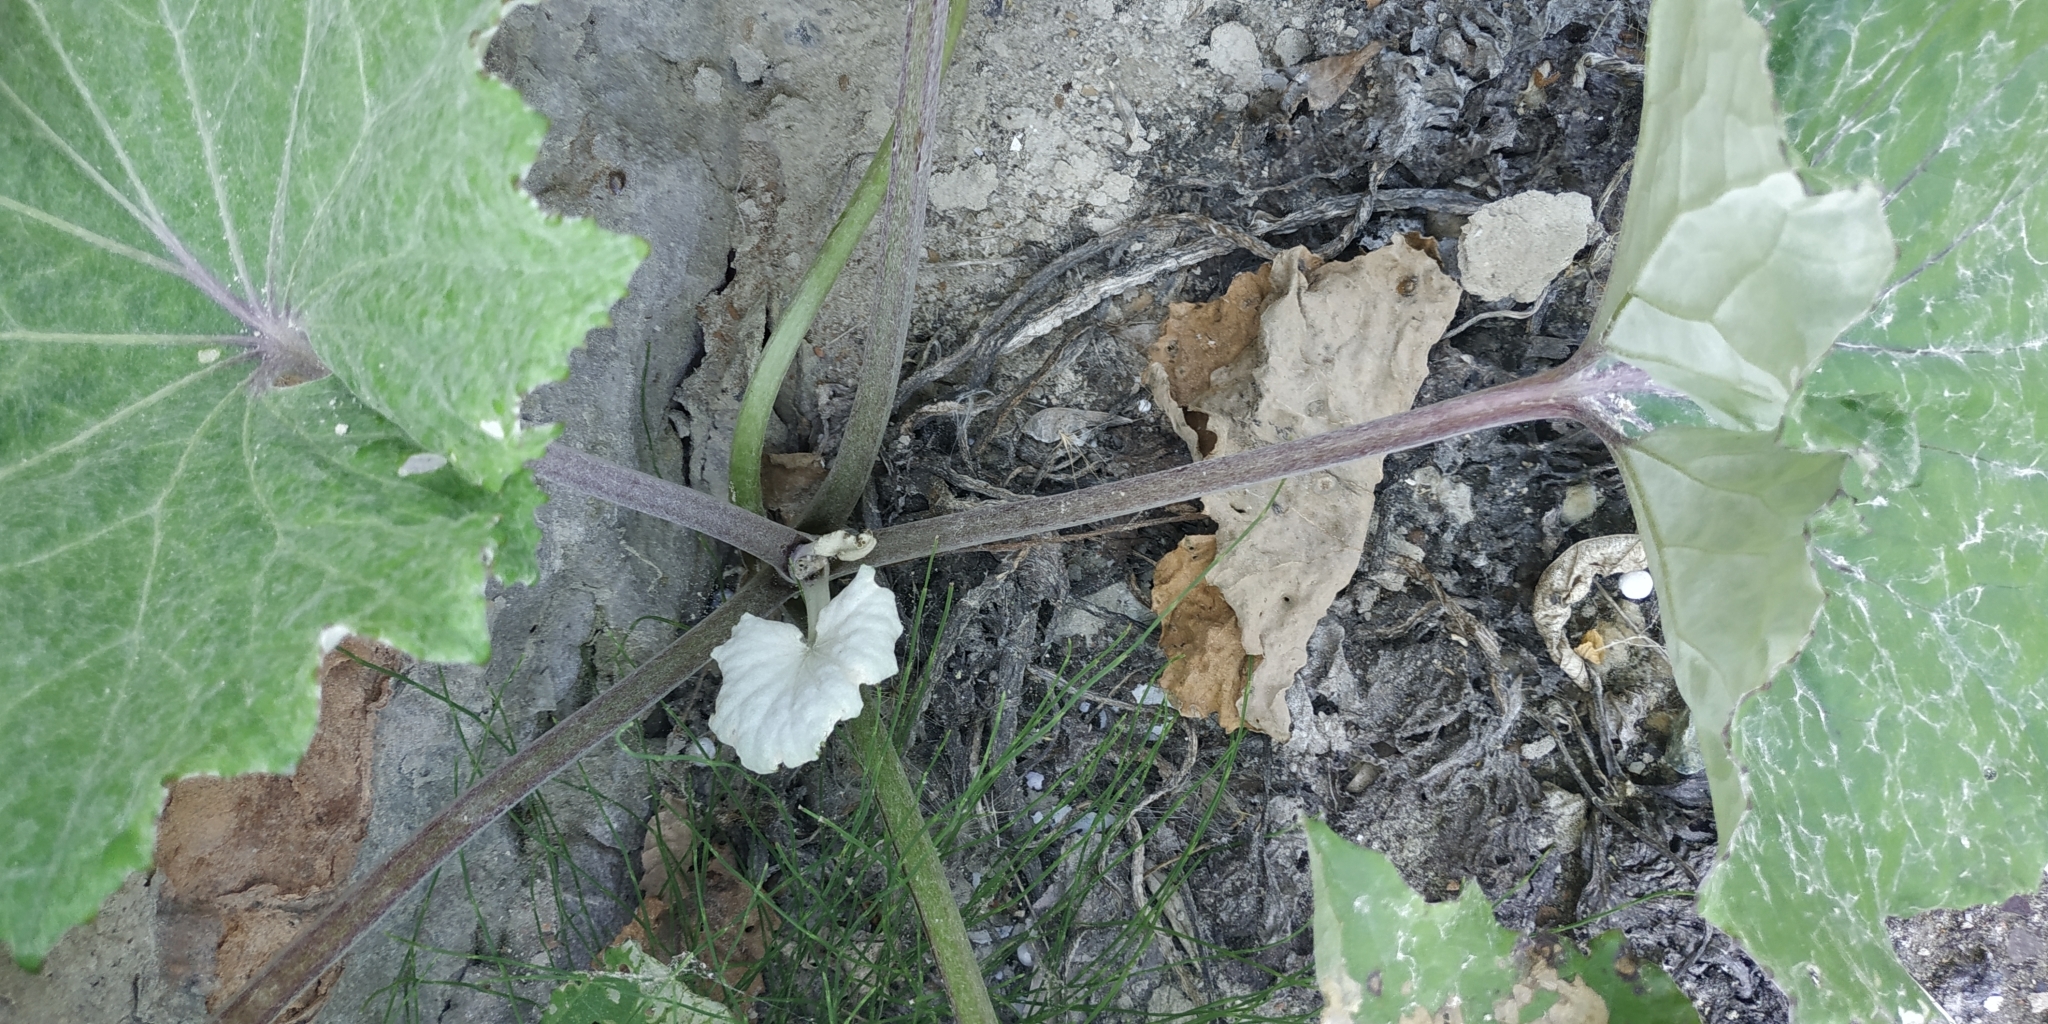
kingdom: Plantae
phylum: Tracheophyta
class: Magnoliopsida
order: Asterales
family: Asteraceae
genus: Tussilago
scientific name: Tussilago farfara
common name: Coltsfoot
